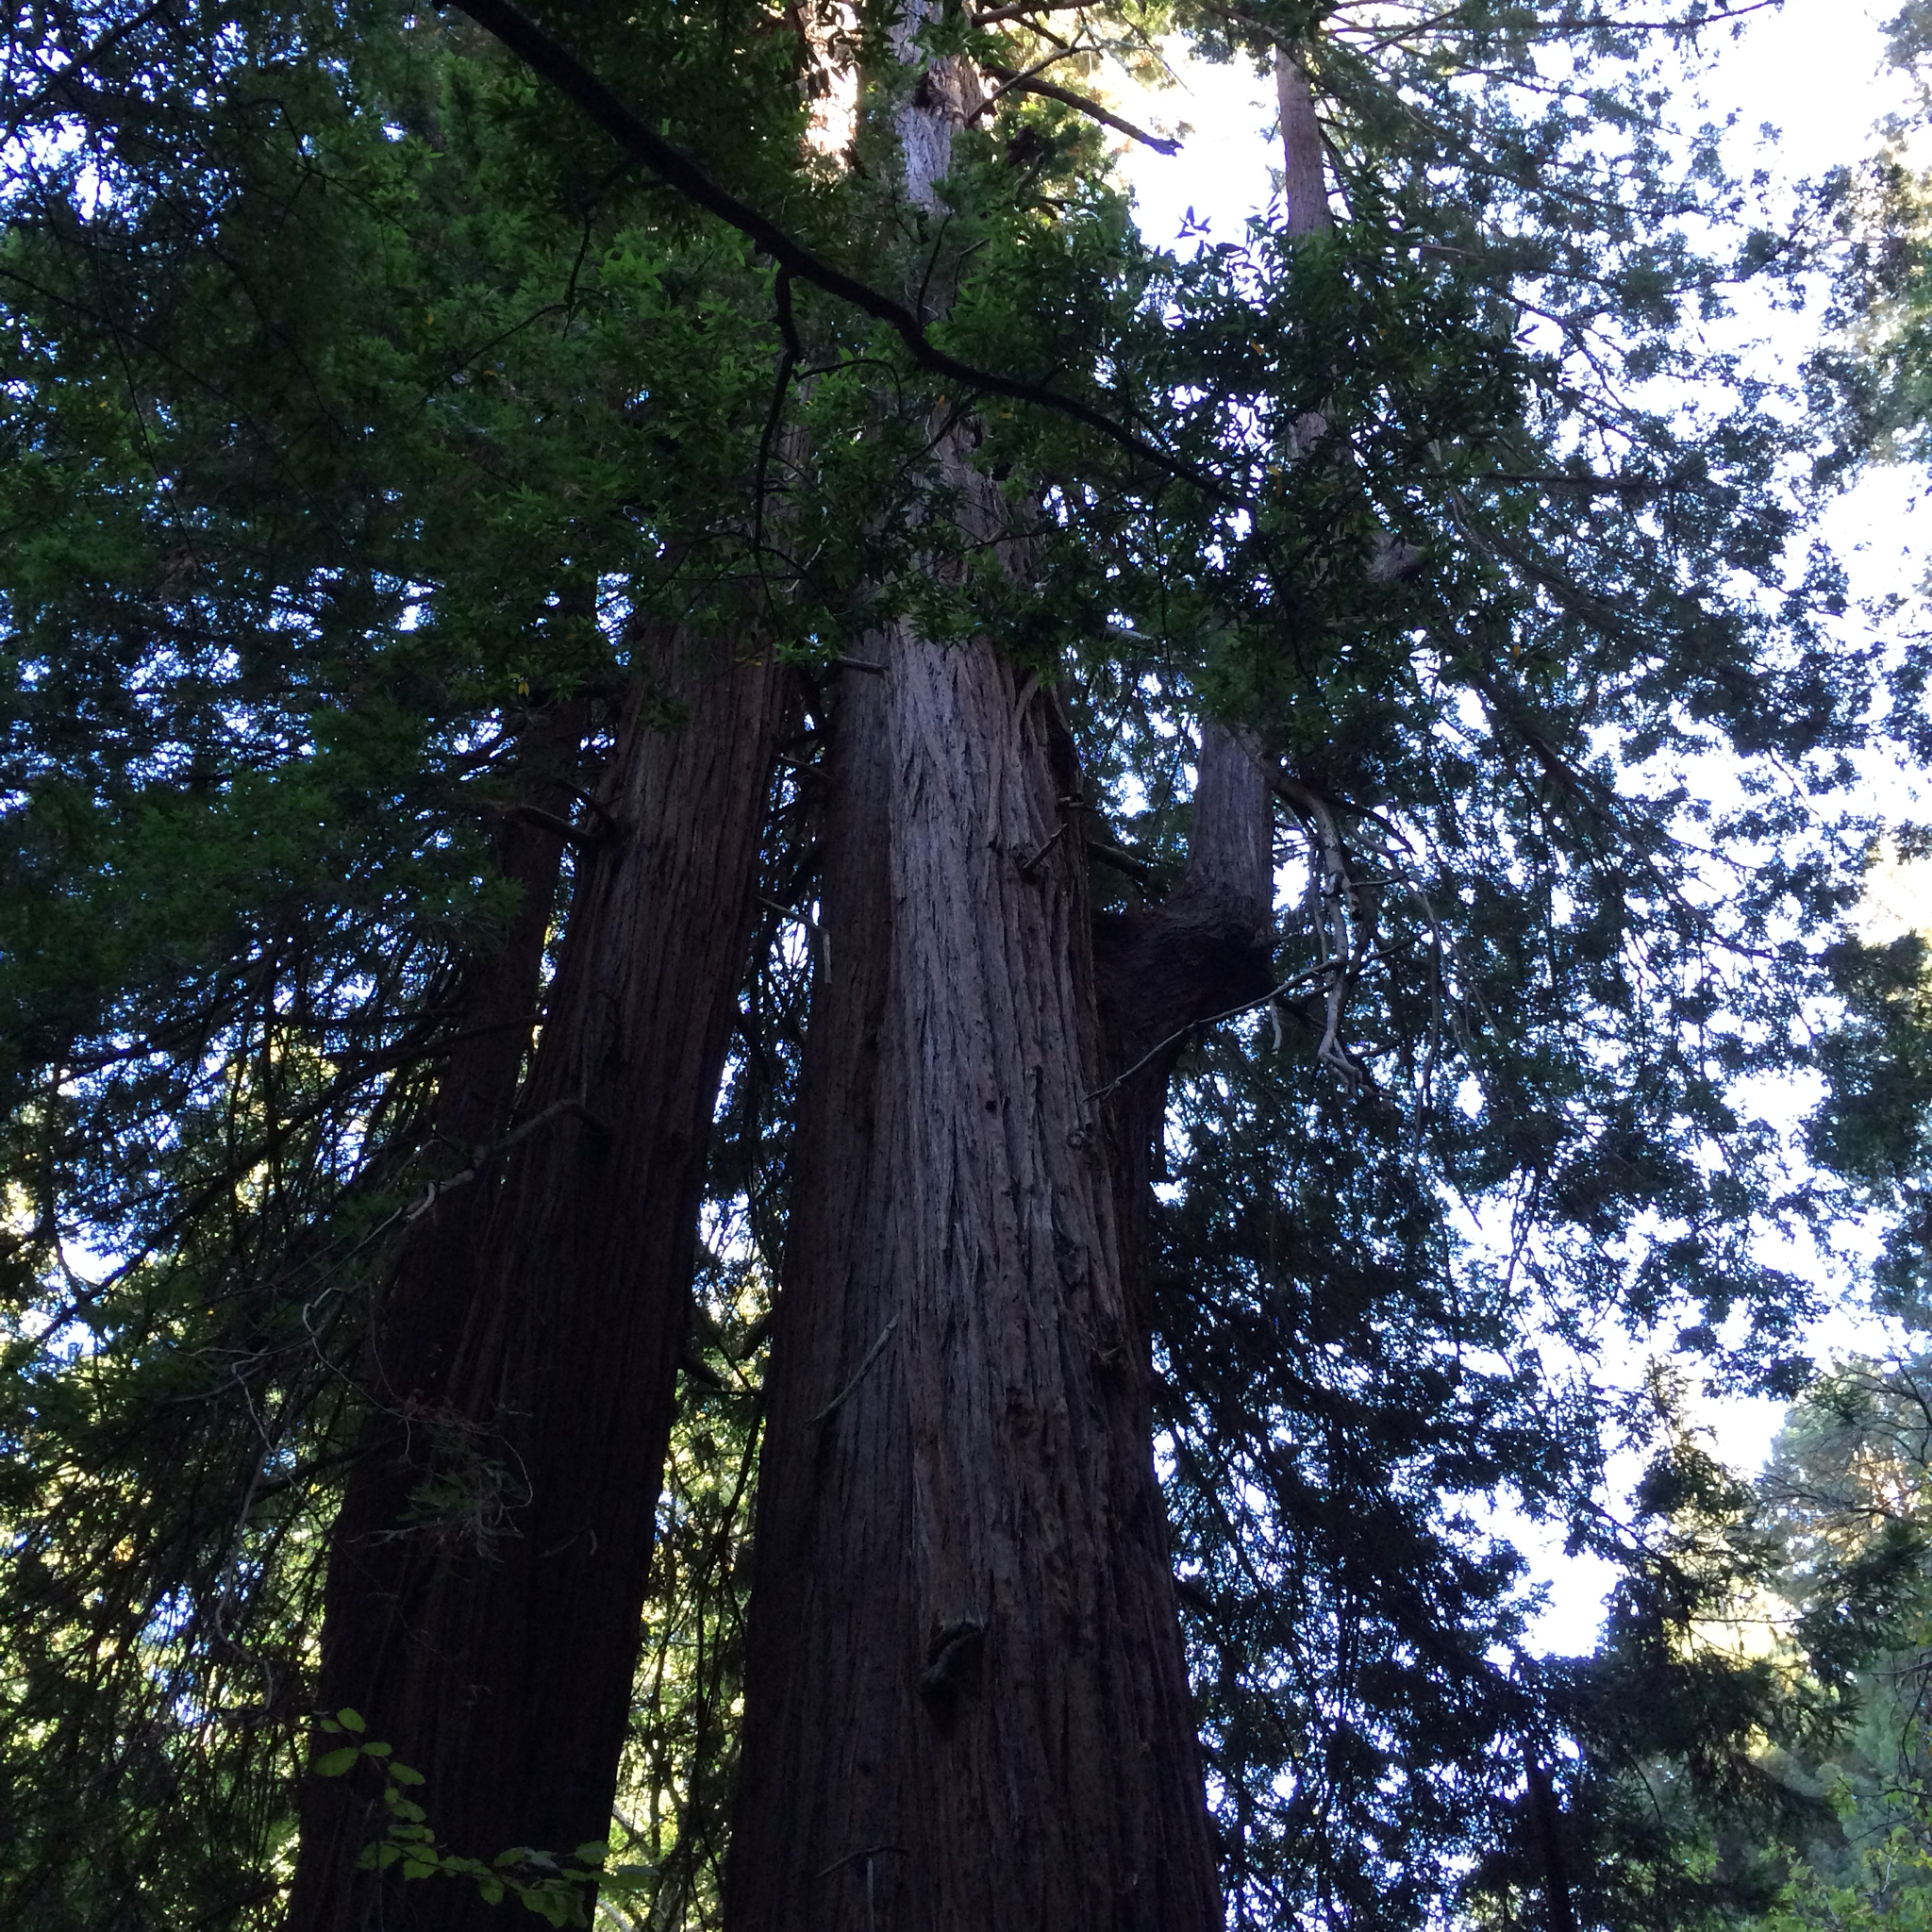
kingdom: Plantae
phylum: Tracheophyta
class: Pinopsida
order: Pinales
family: Cupressaceae
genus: Sequoia
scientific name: Sequoia sempervirens
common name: Coast redwood
